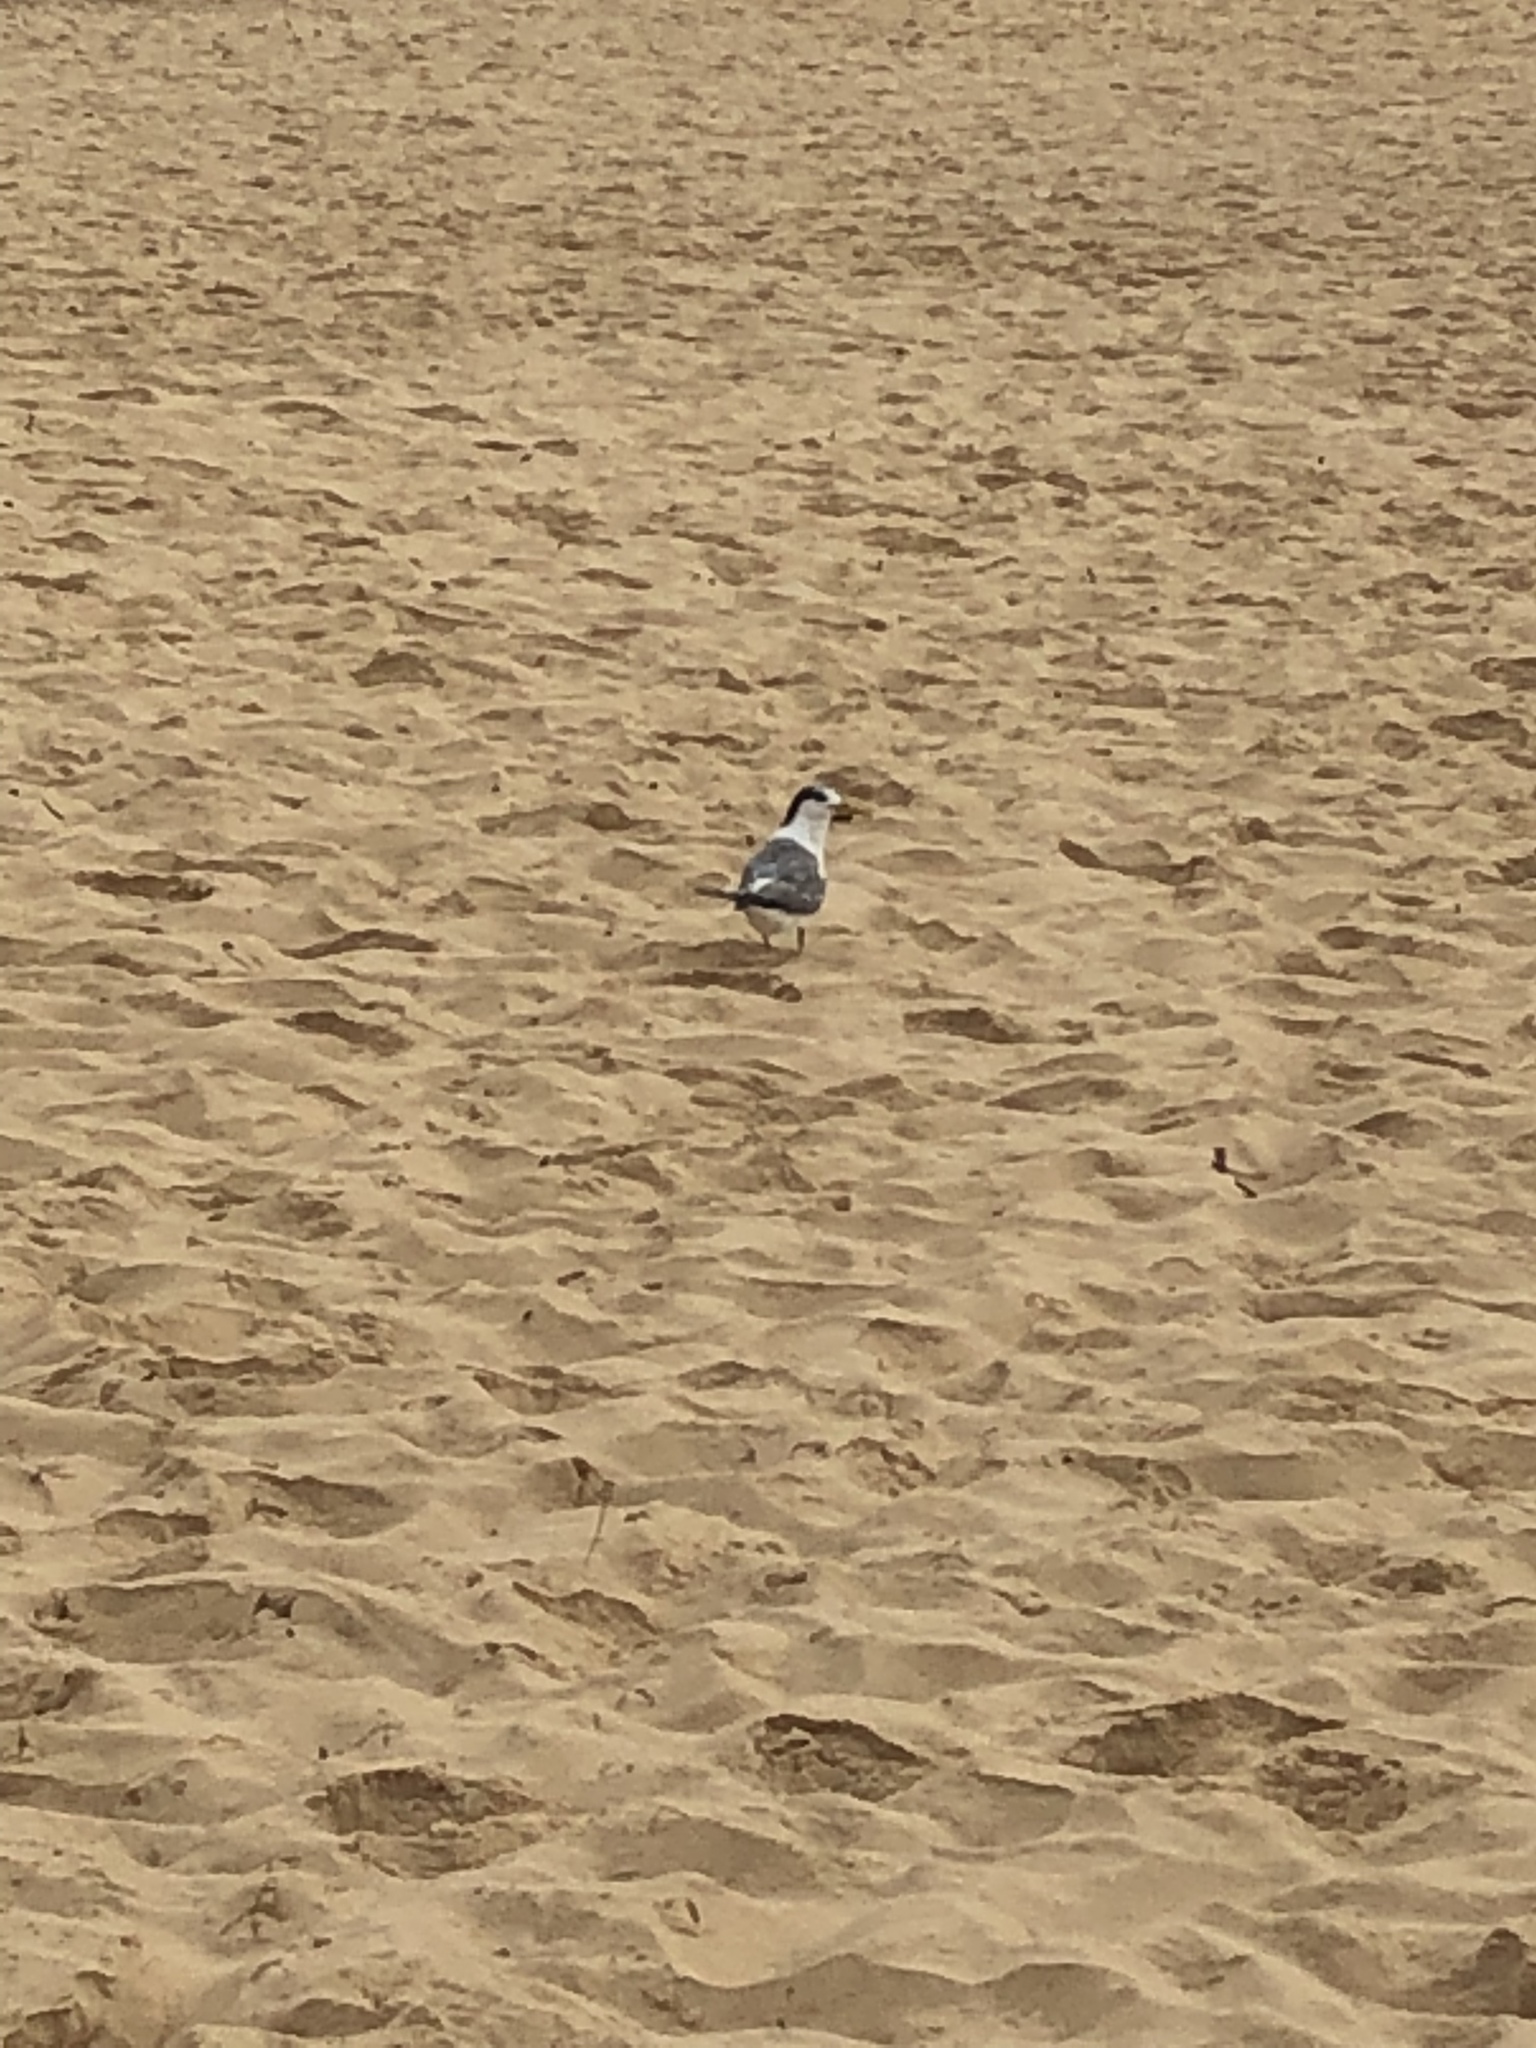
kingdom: Animalia
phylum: Chordata
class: Aves
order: Charadriiformes
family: Laridae
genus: Thalasseus
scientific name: Thalasseus bergii
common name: Greater crested tern
